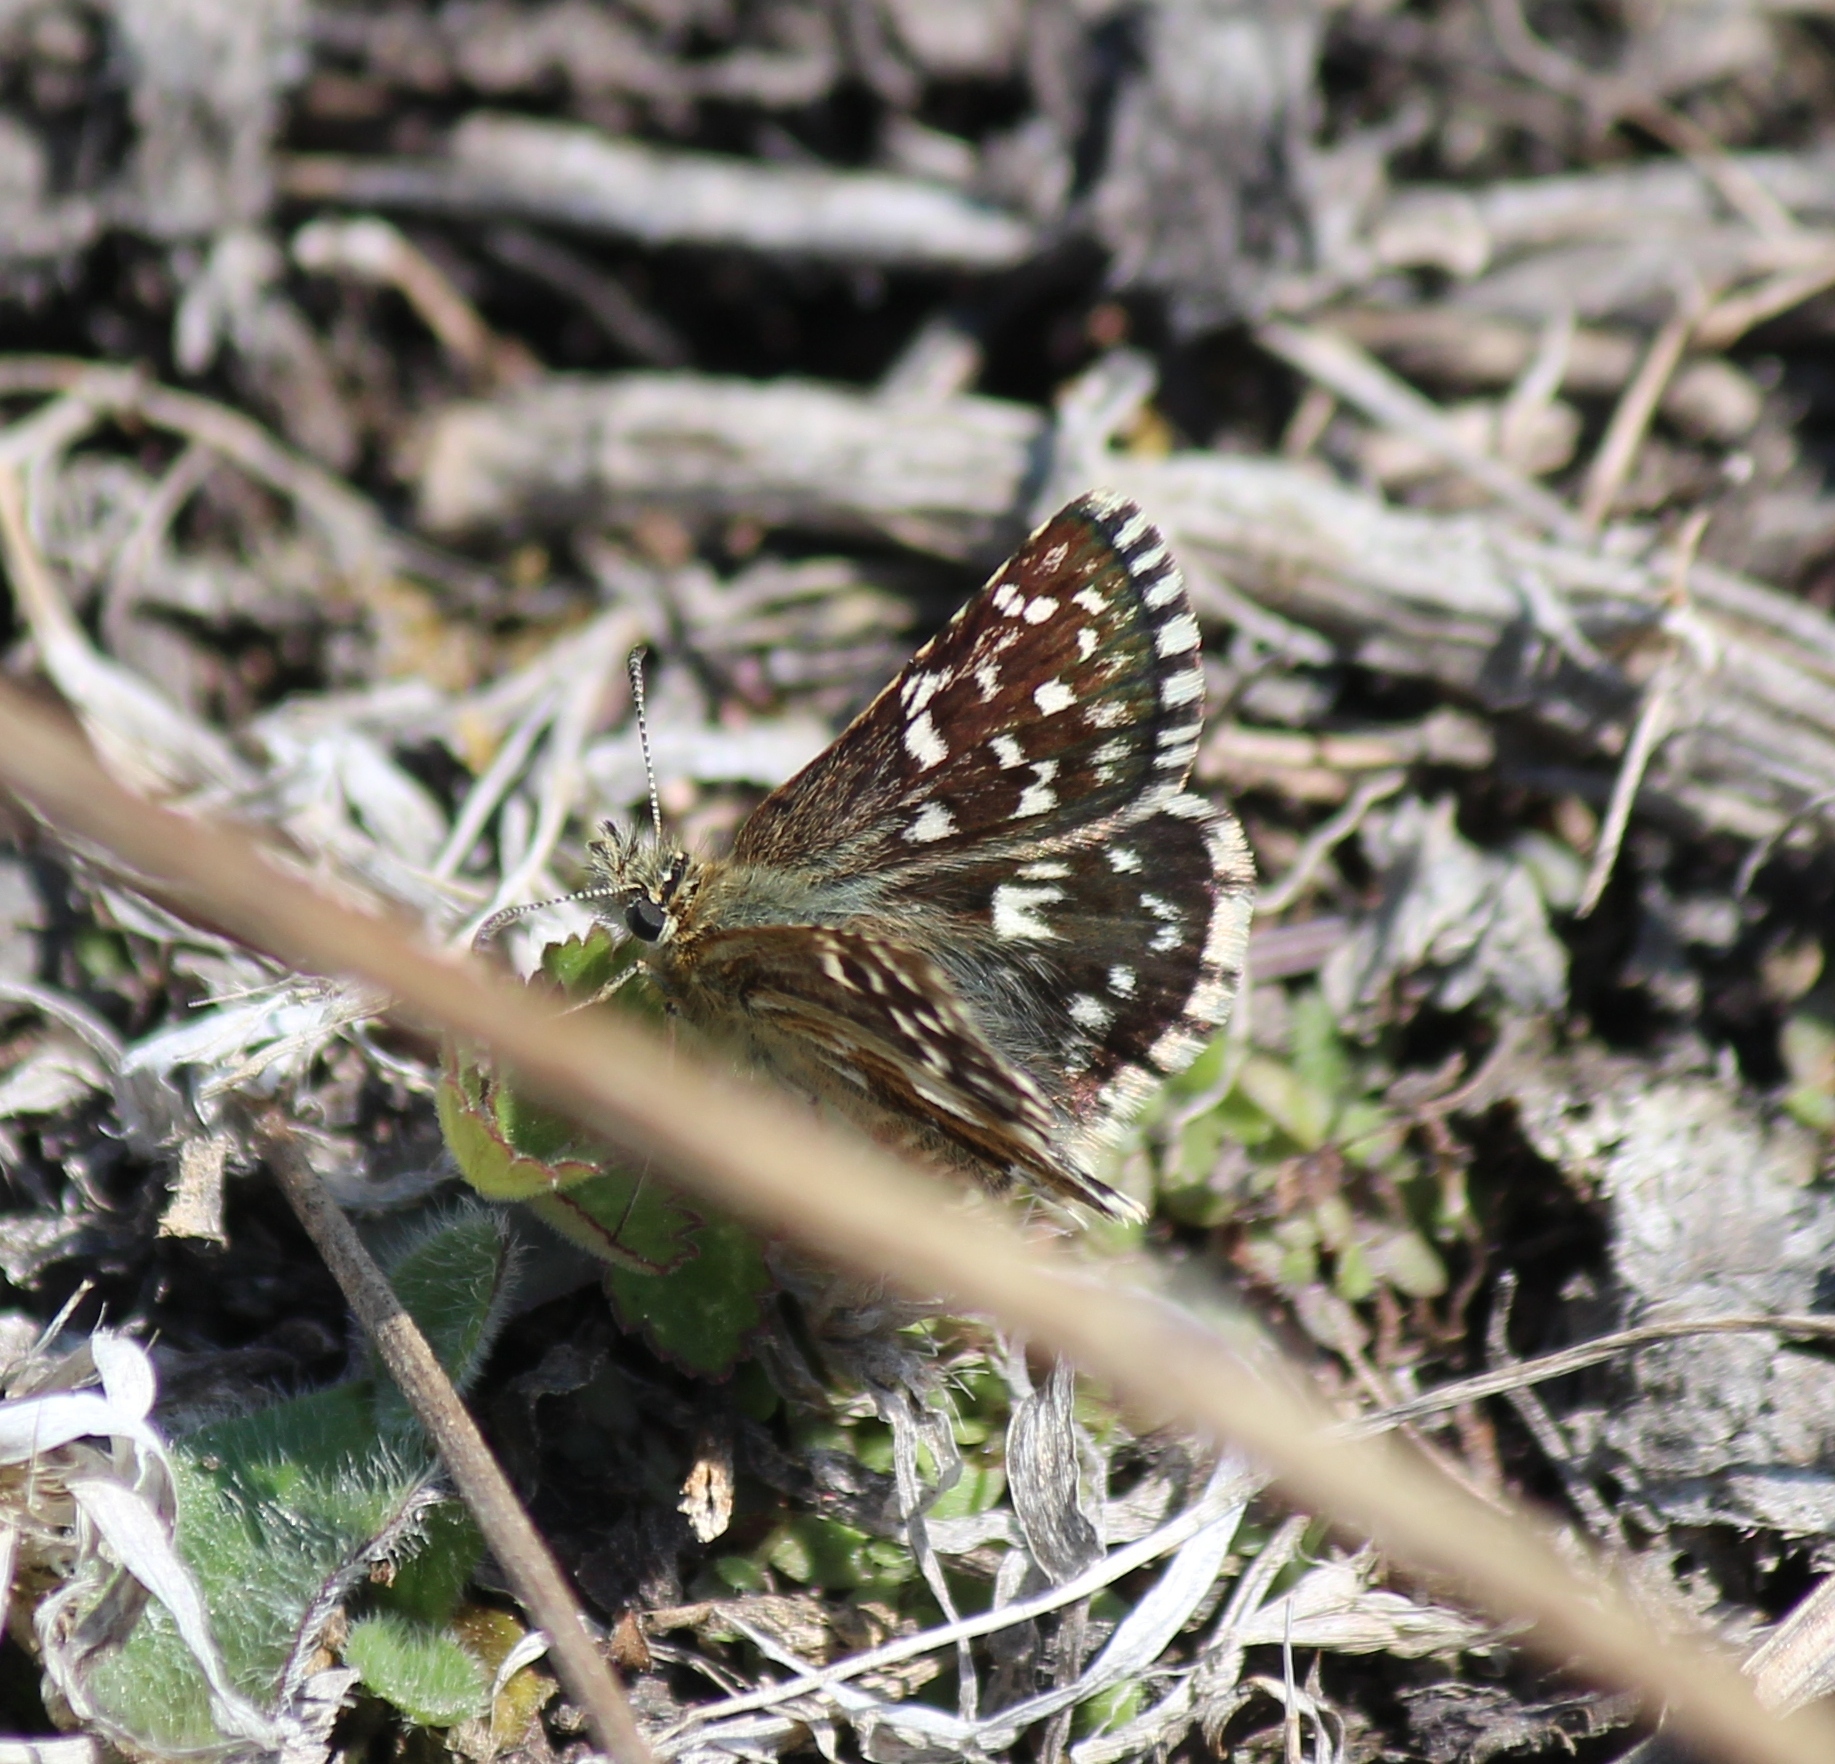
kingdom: Animalia
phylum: Arthropoda
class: Insecta
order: Lepidoptera
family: Hesperiidae
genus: Pyrgus
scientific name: Pyrgus malvae
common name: Grizzled skipper
